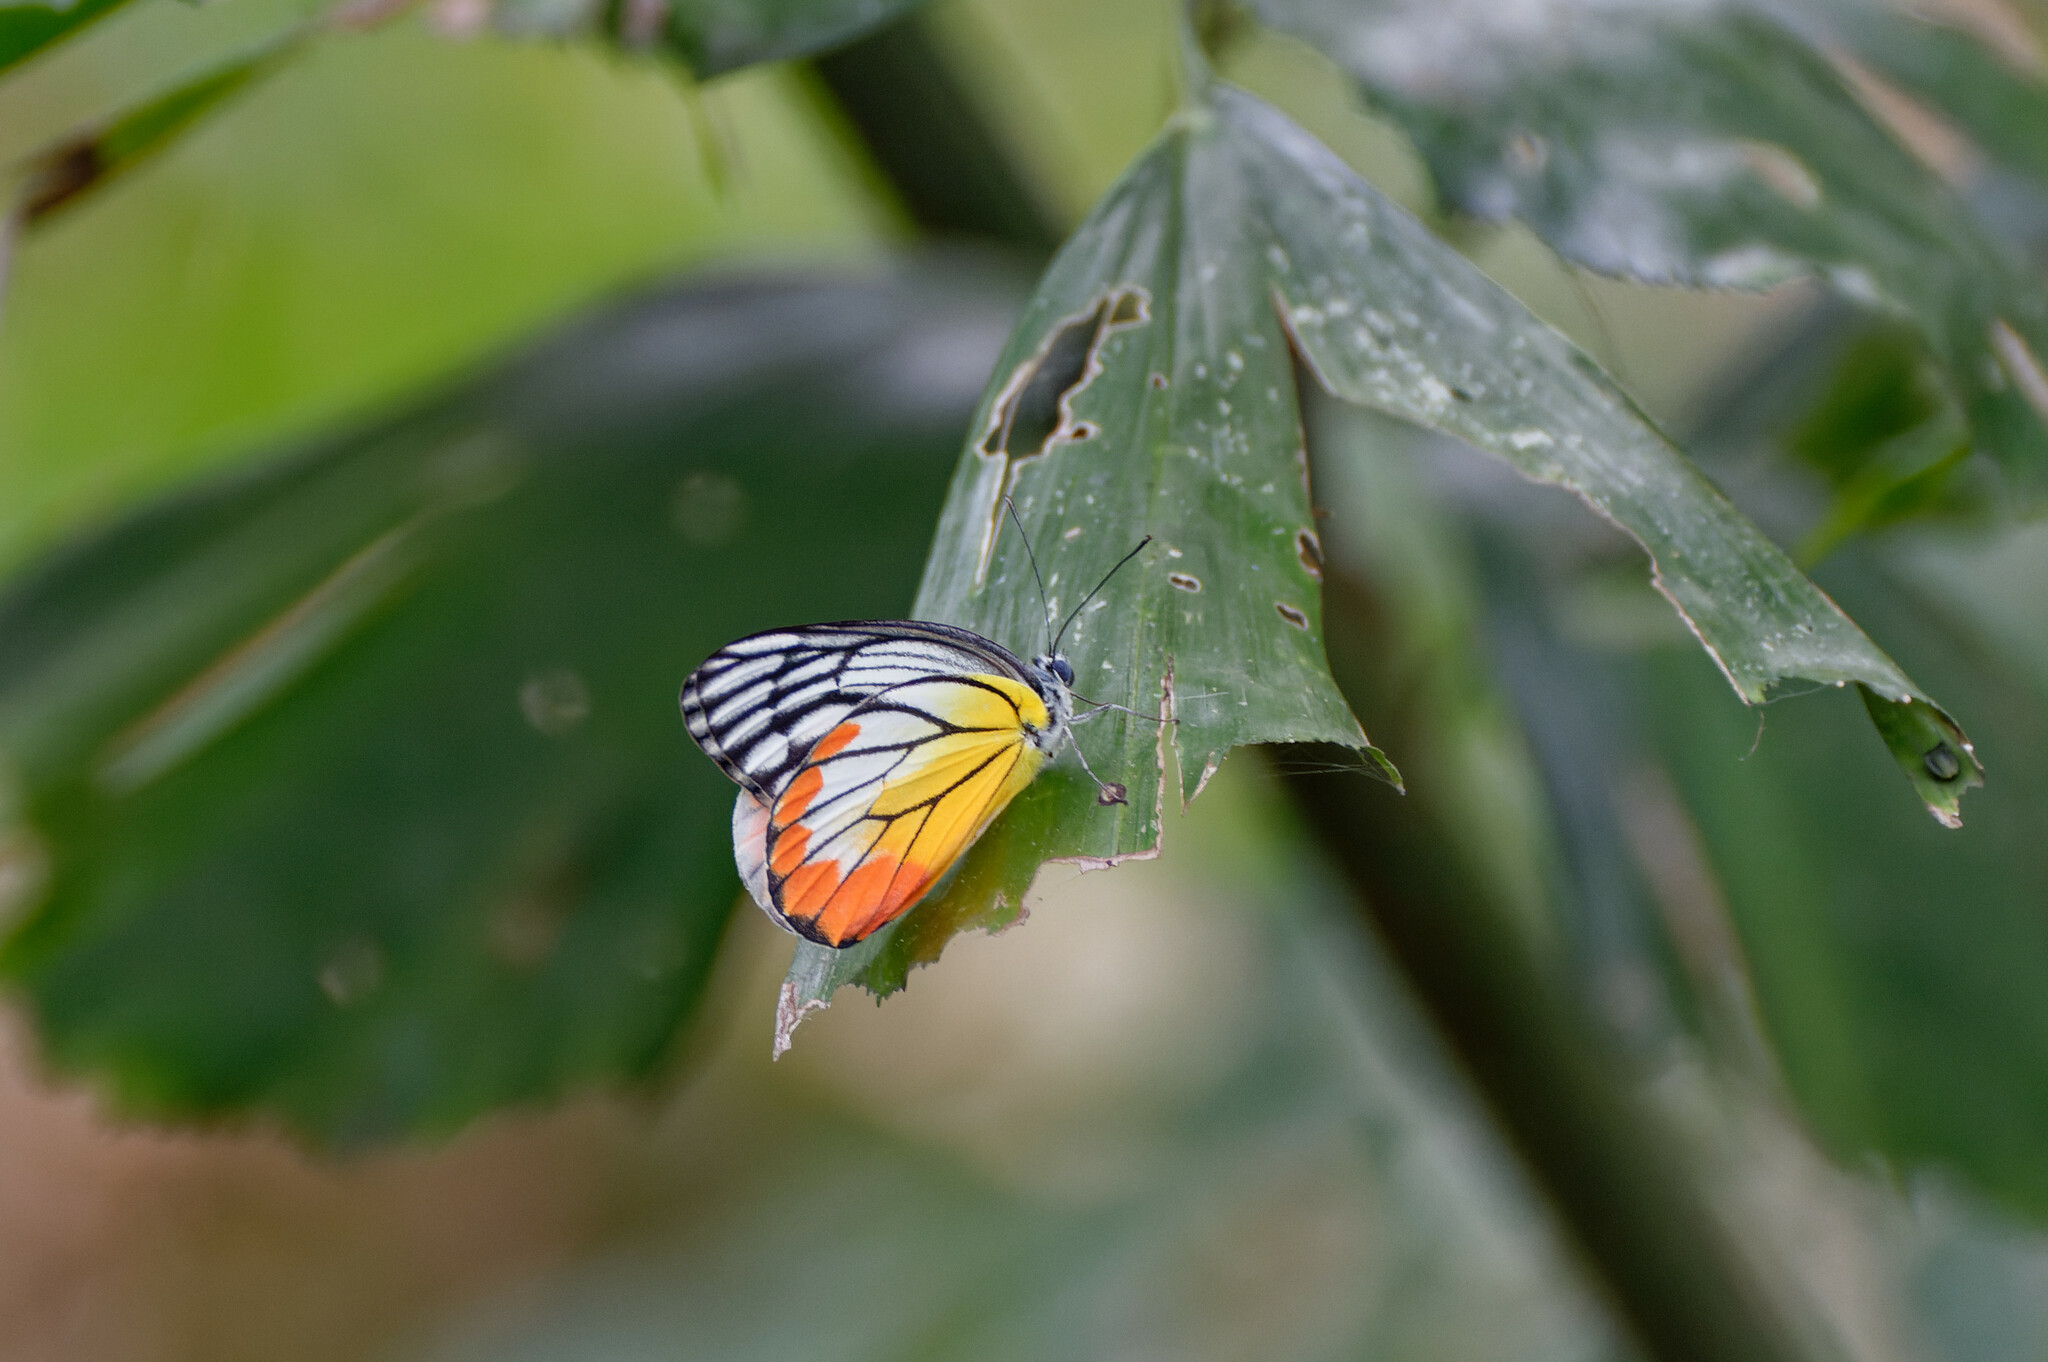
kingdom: Animalia
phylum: Arthropoda
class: Insecta
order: Lepidoptera
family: Pieridae
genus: Delias
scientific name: Delias hyparete
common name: Painted jezebel
